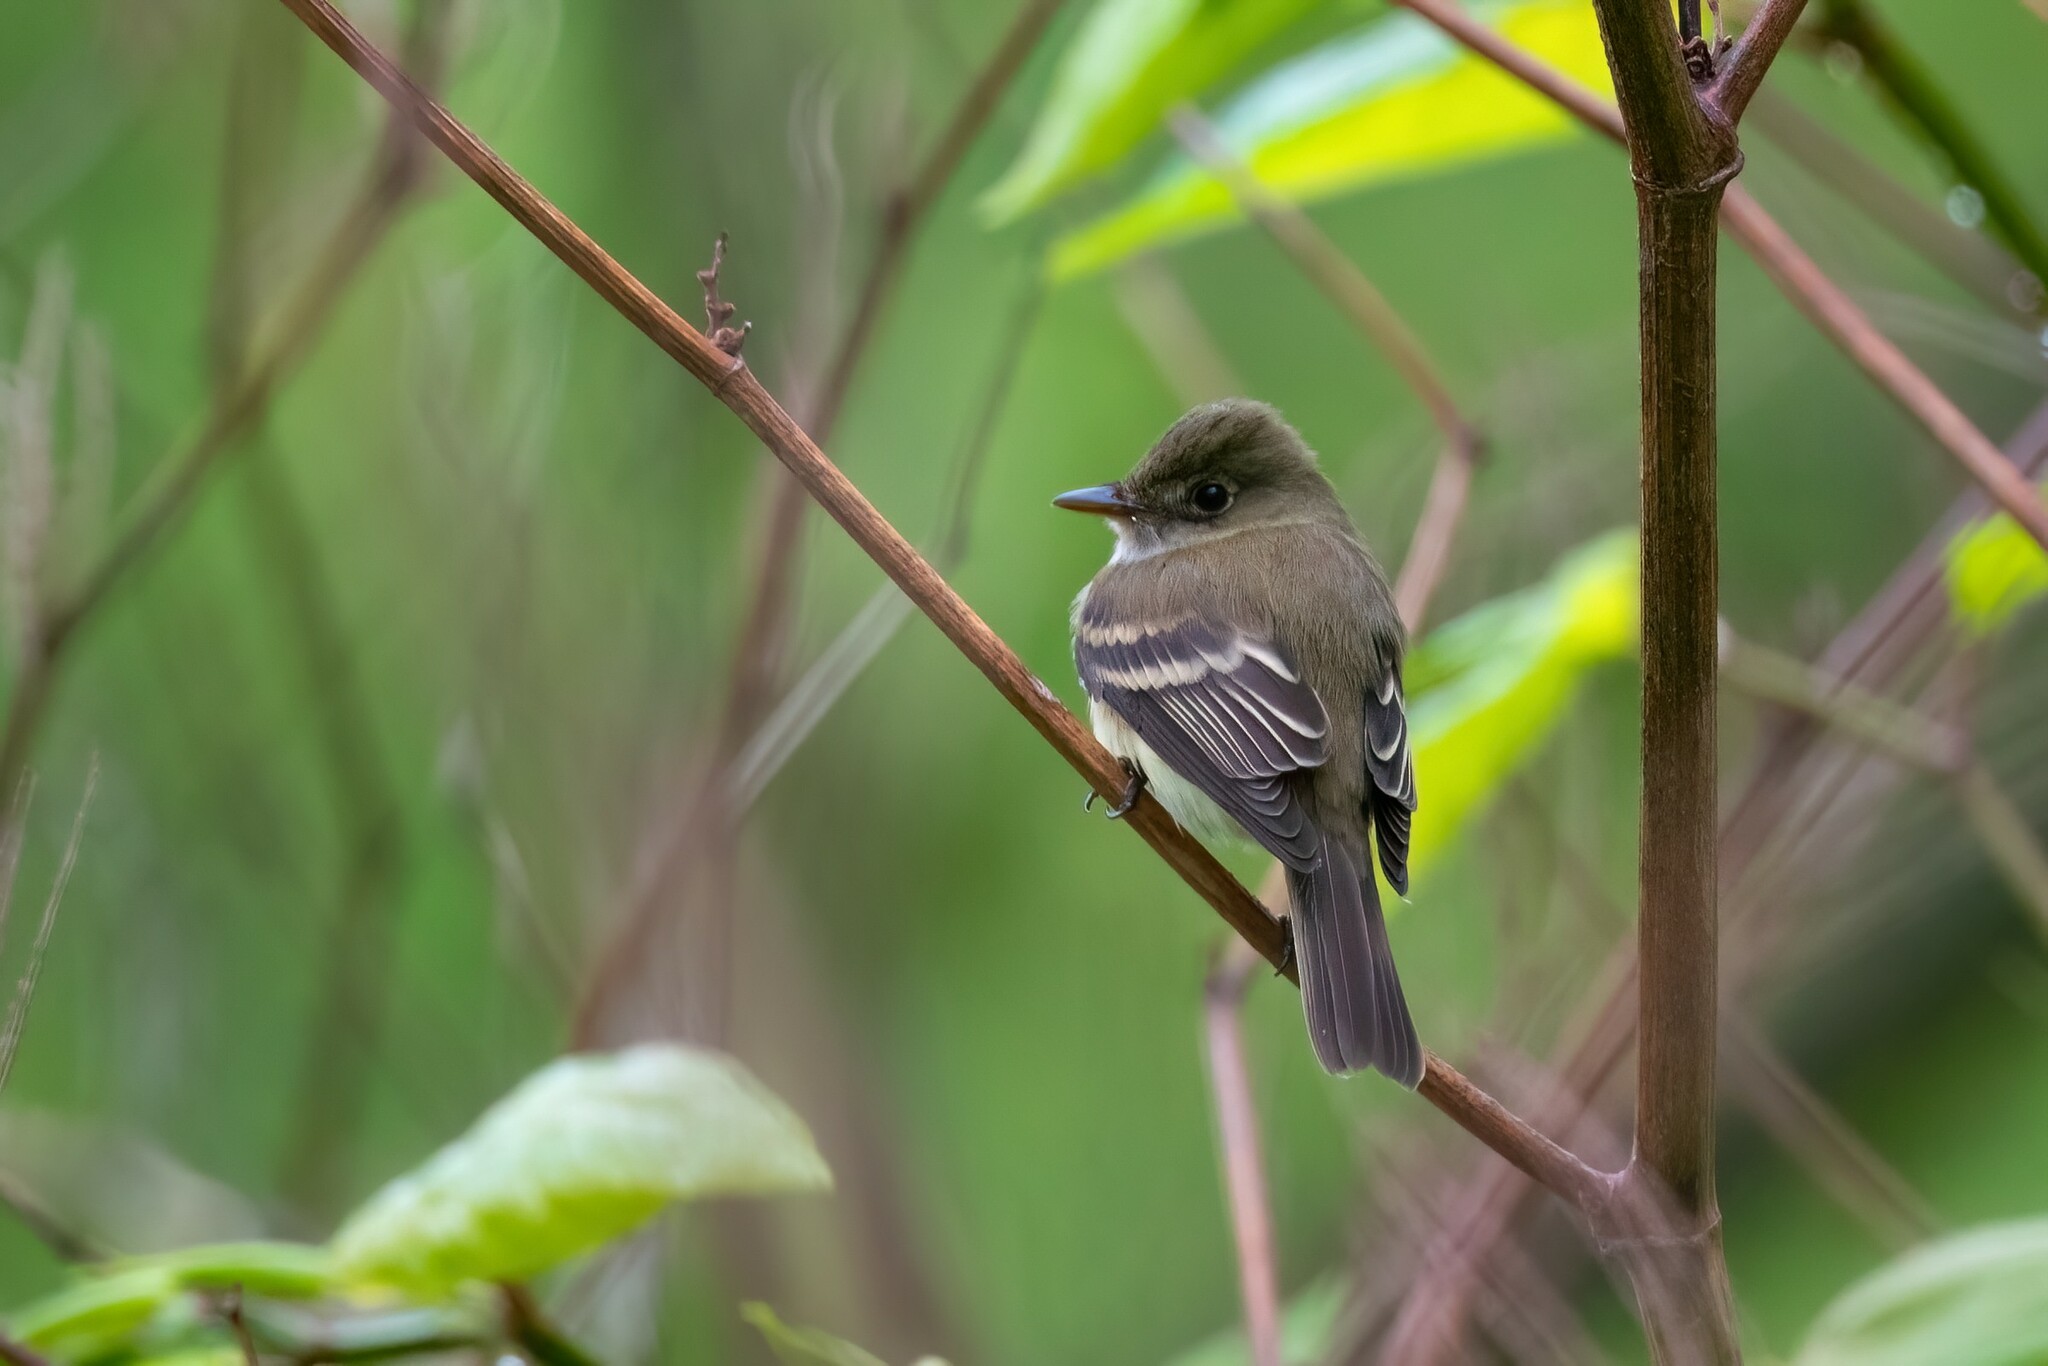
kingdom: Animalia
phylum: Chordata
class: Aves
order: Passeriformes
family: Tyrannidae
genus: Empidonax
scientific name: Empidonax alnorum
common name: Alder flycatcher
